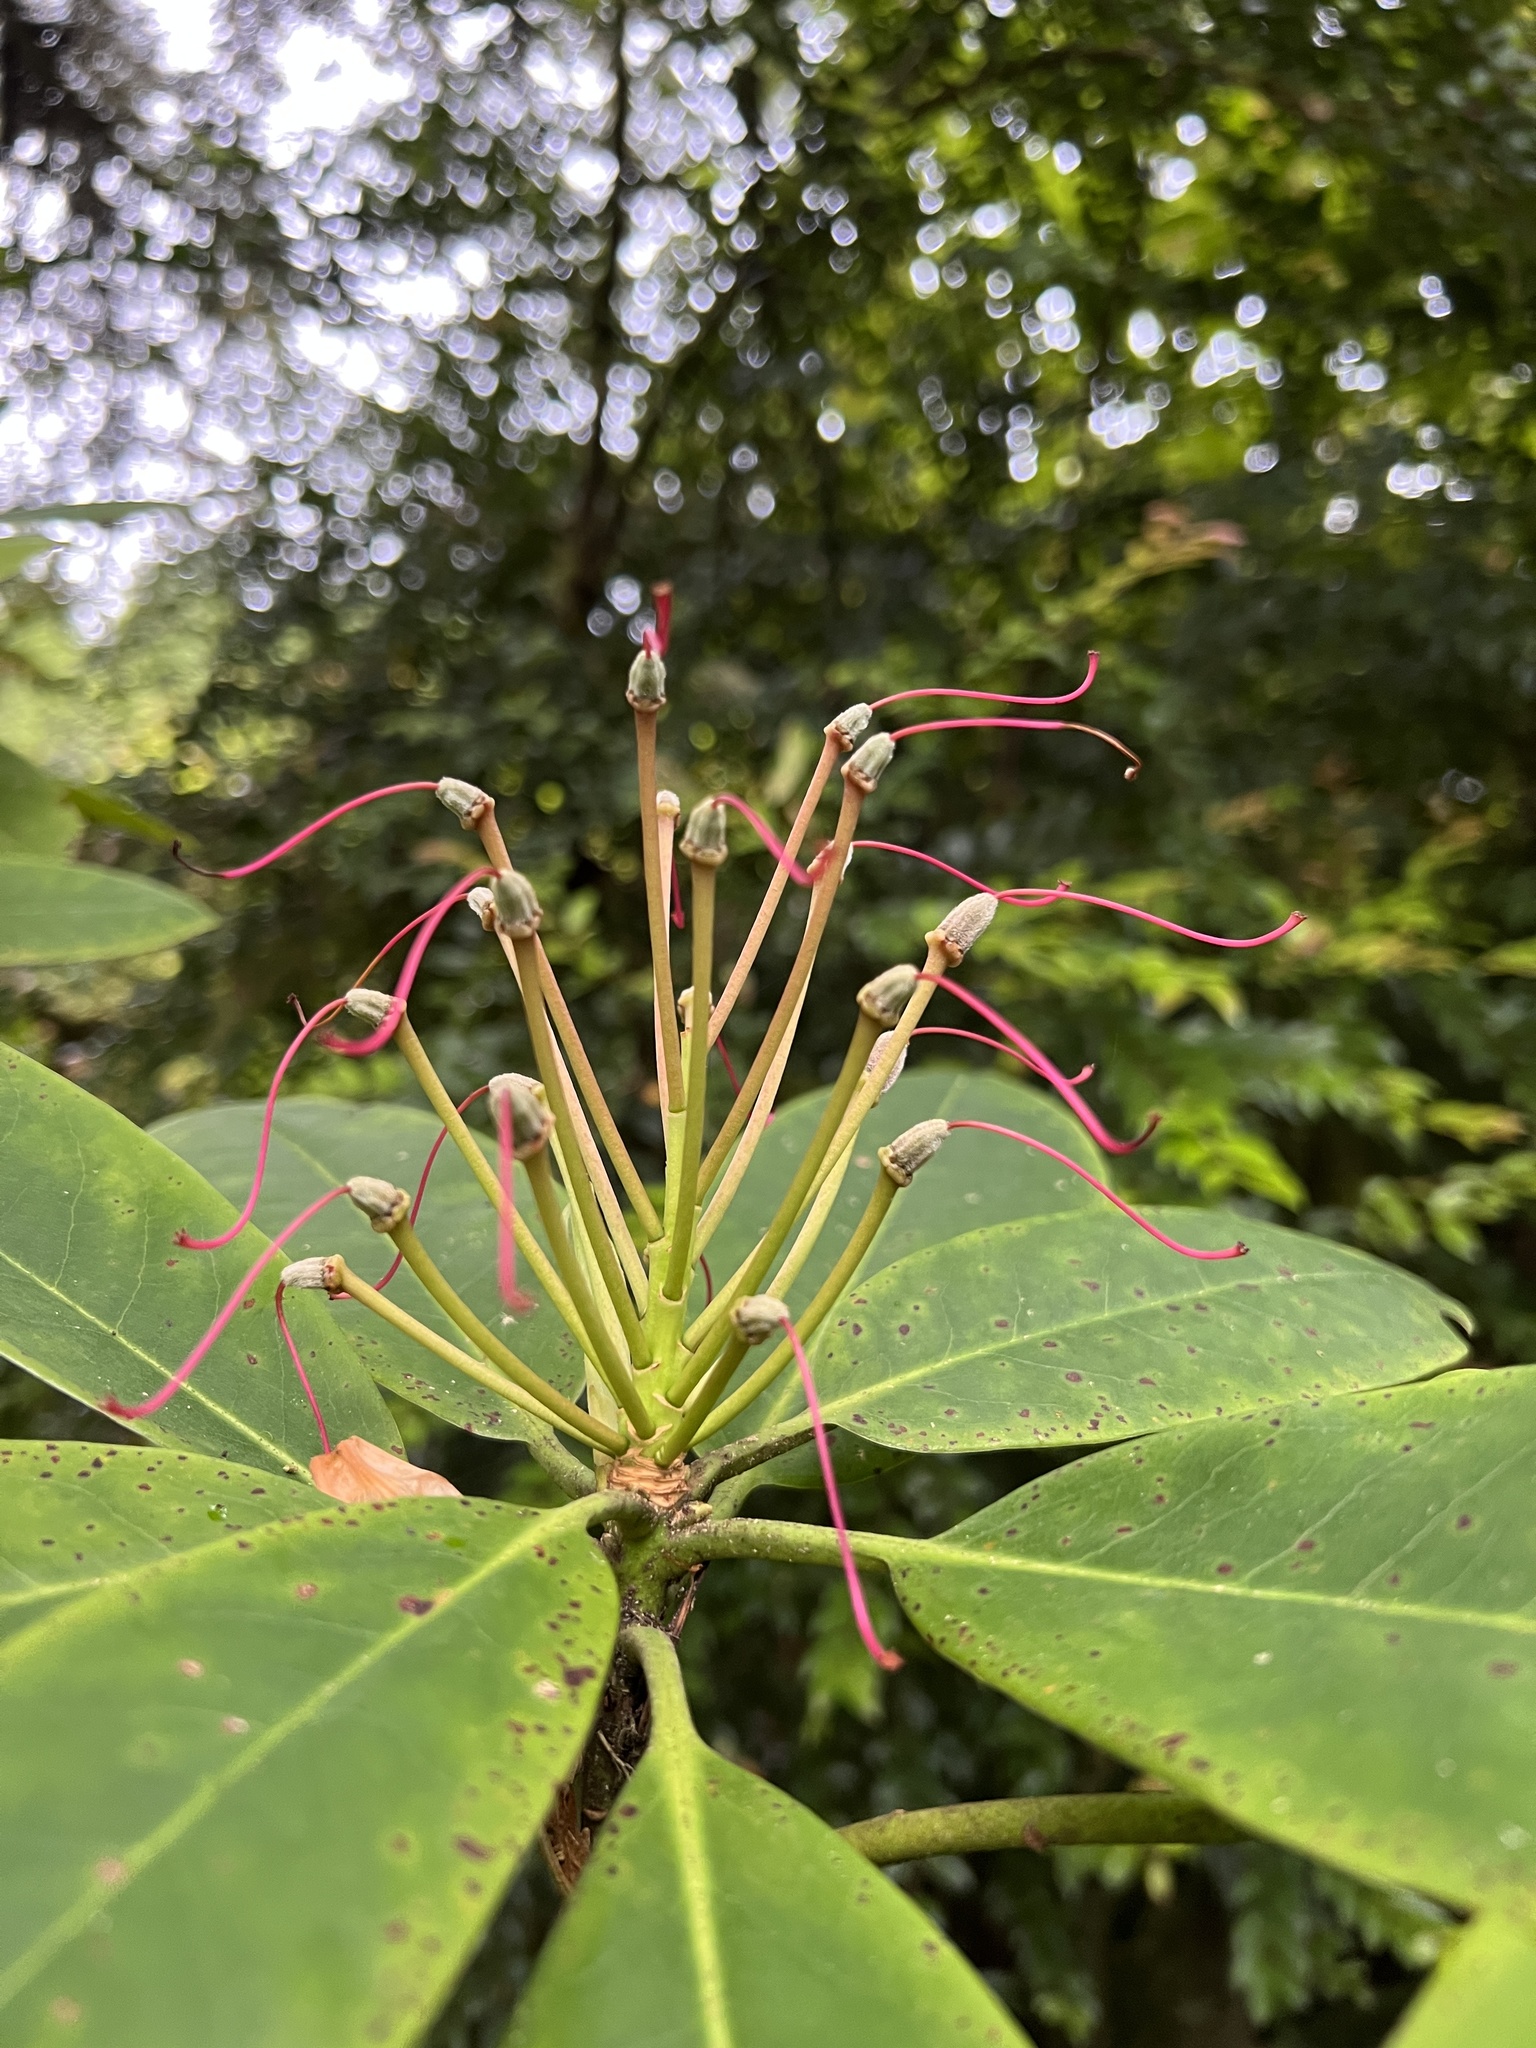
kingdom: Plantae
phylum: Tracheophyta
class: Magnoliopsida
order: Ericales
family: Ericaceae
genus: Rhododendron
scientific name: Rhododendron macrophyllum
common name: California rose bay
